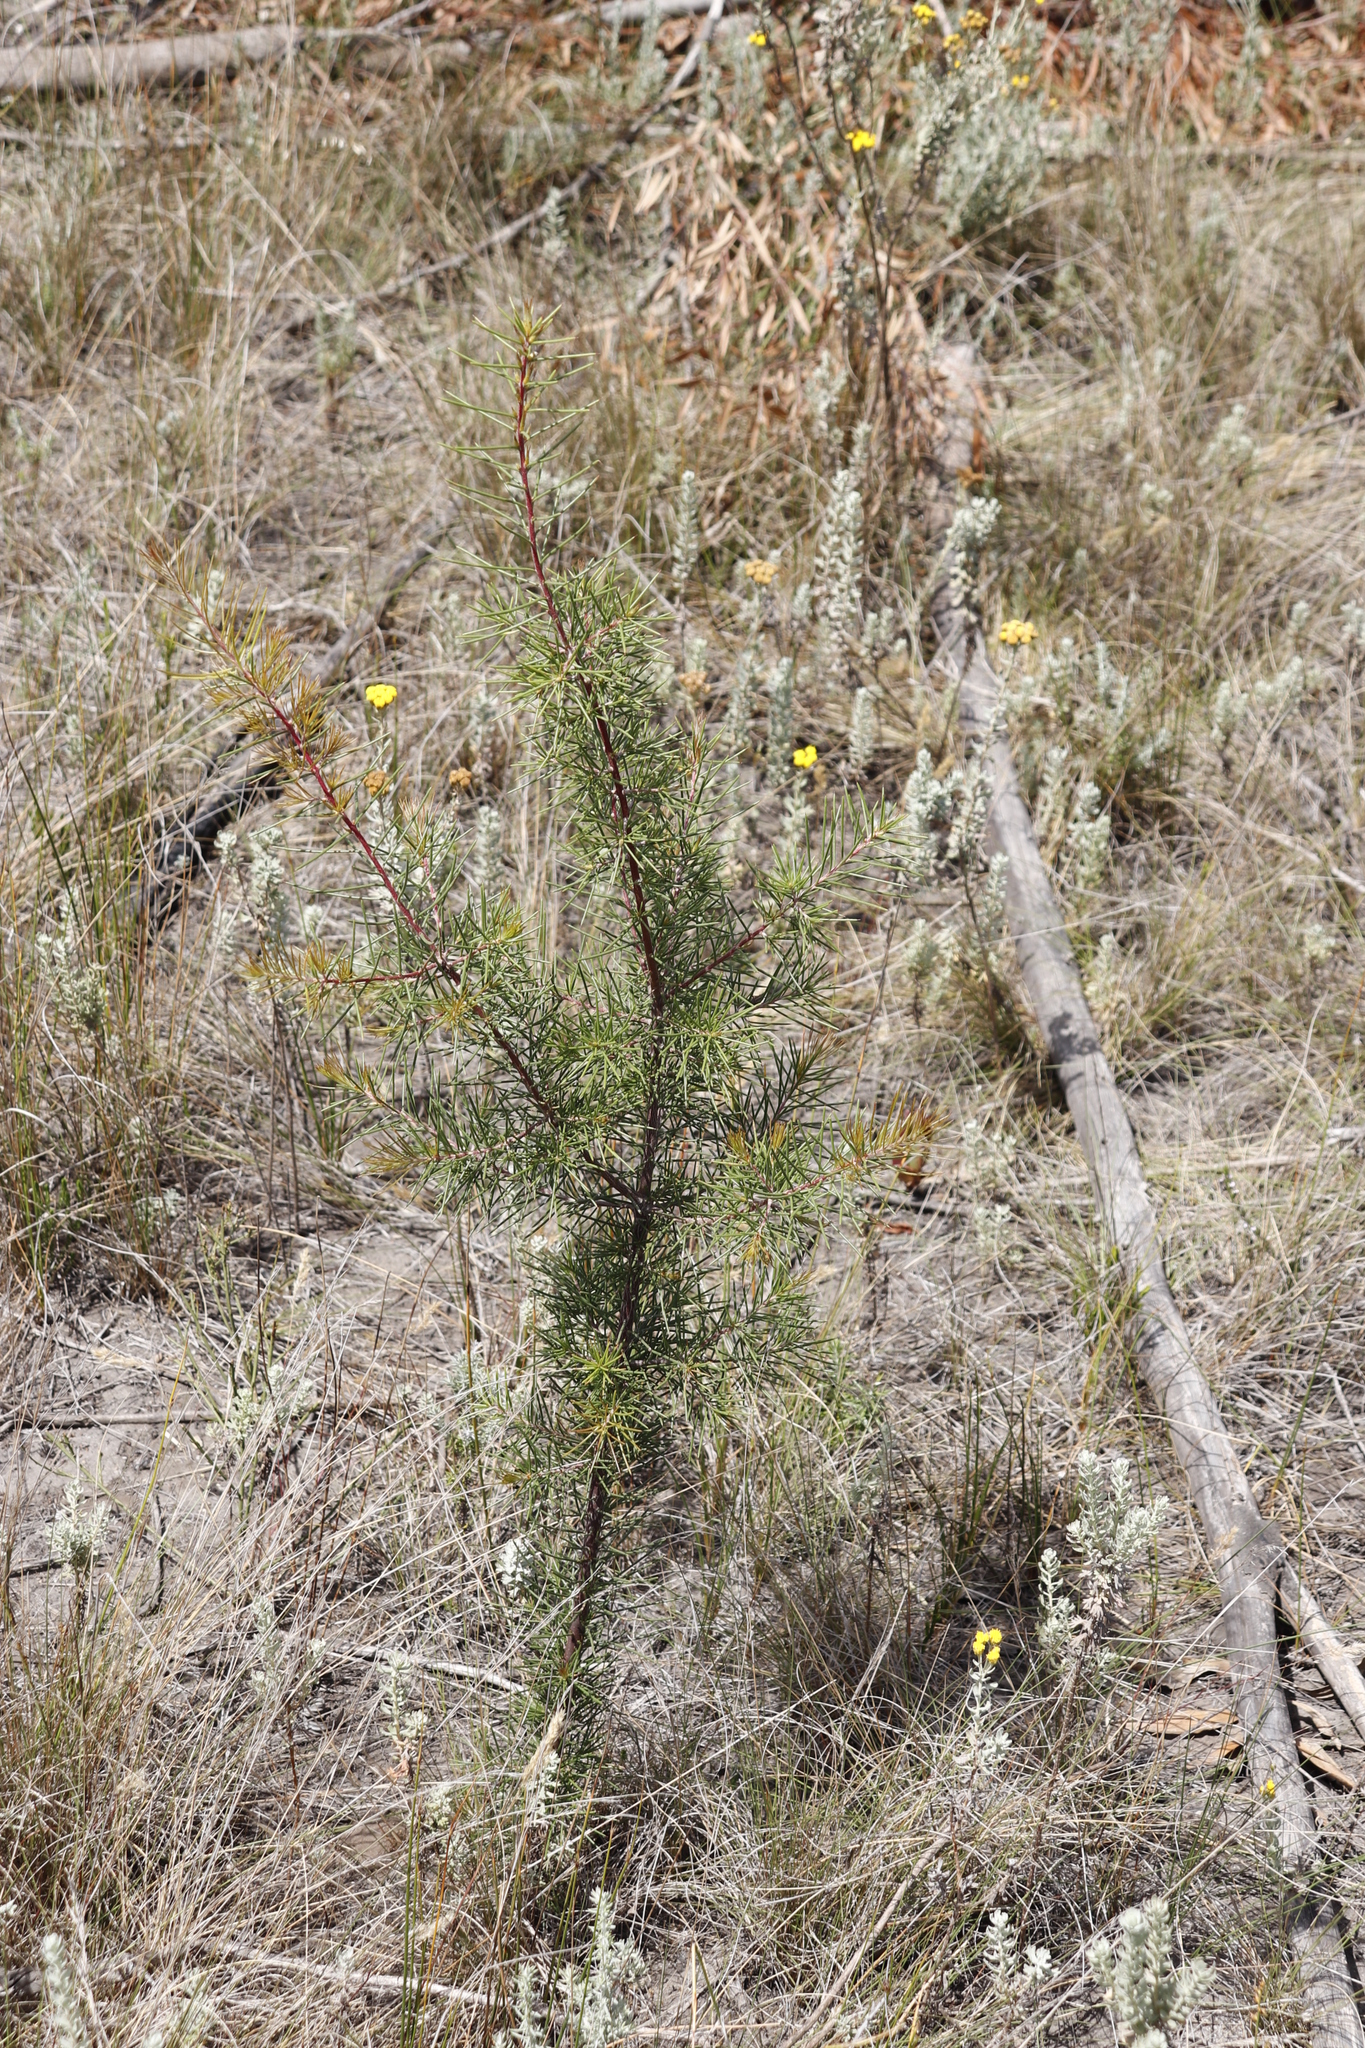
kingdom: Plantae
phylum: Tracheophyta
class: Magnoliopsida
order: Proteales
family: Proteaceae
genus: Hakea
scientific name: Hakea sericea
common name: Needle bush
